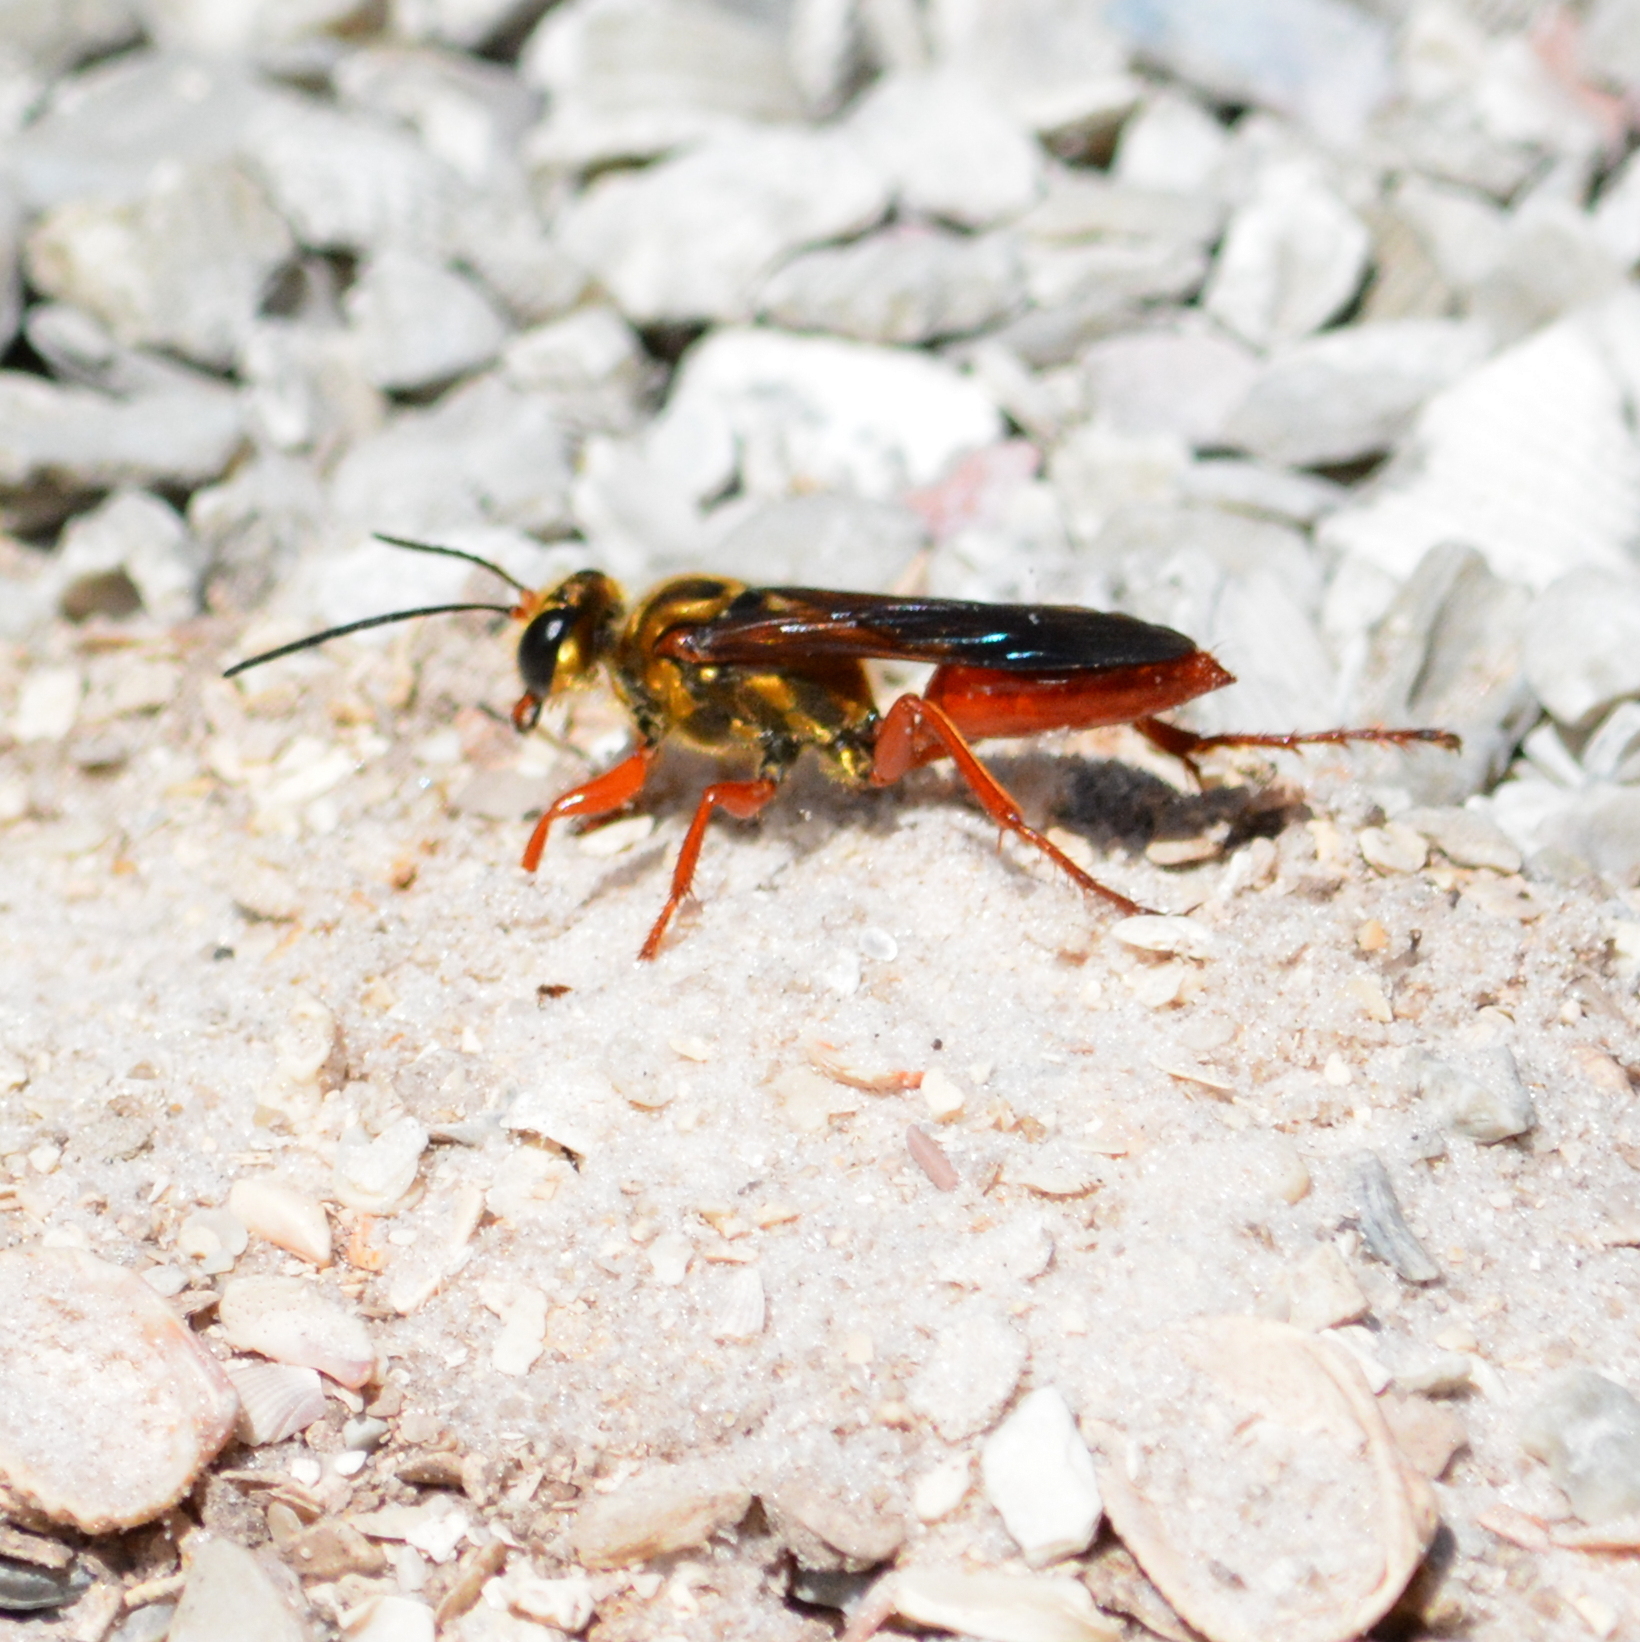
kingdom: Animalia
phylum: Arthropoda
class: Insecta
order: Hymenoptera
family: Sphecidae
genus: Sphex
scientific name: Sphex jamaicensis
